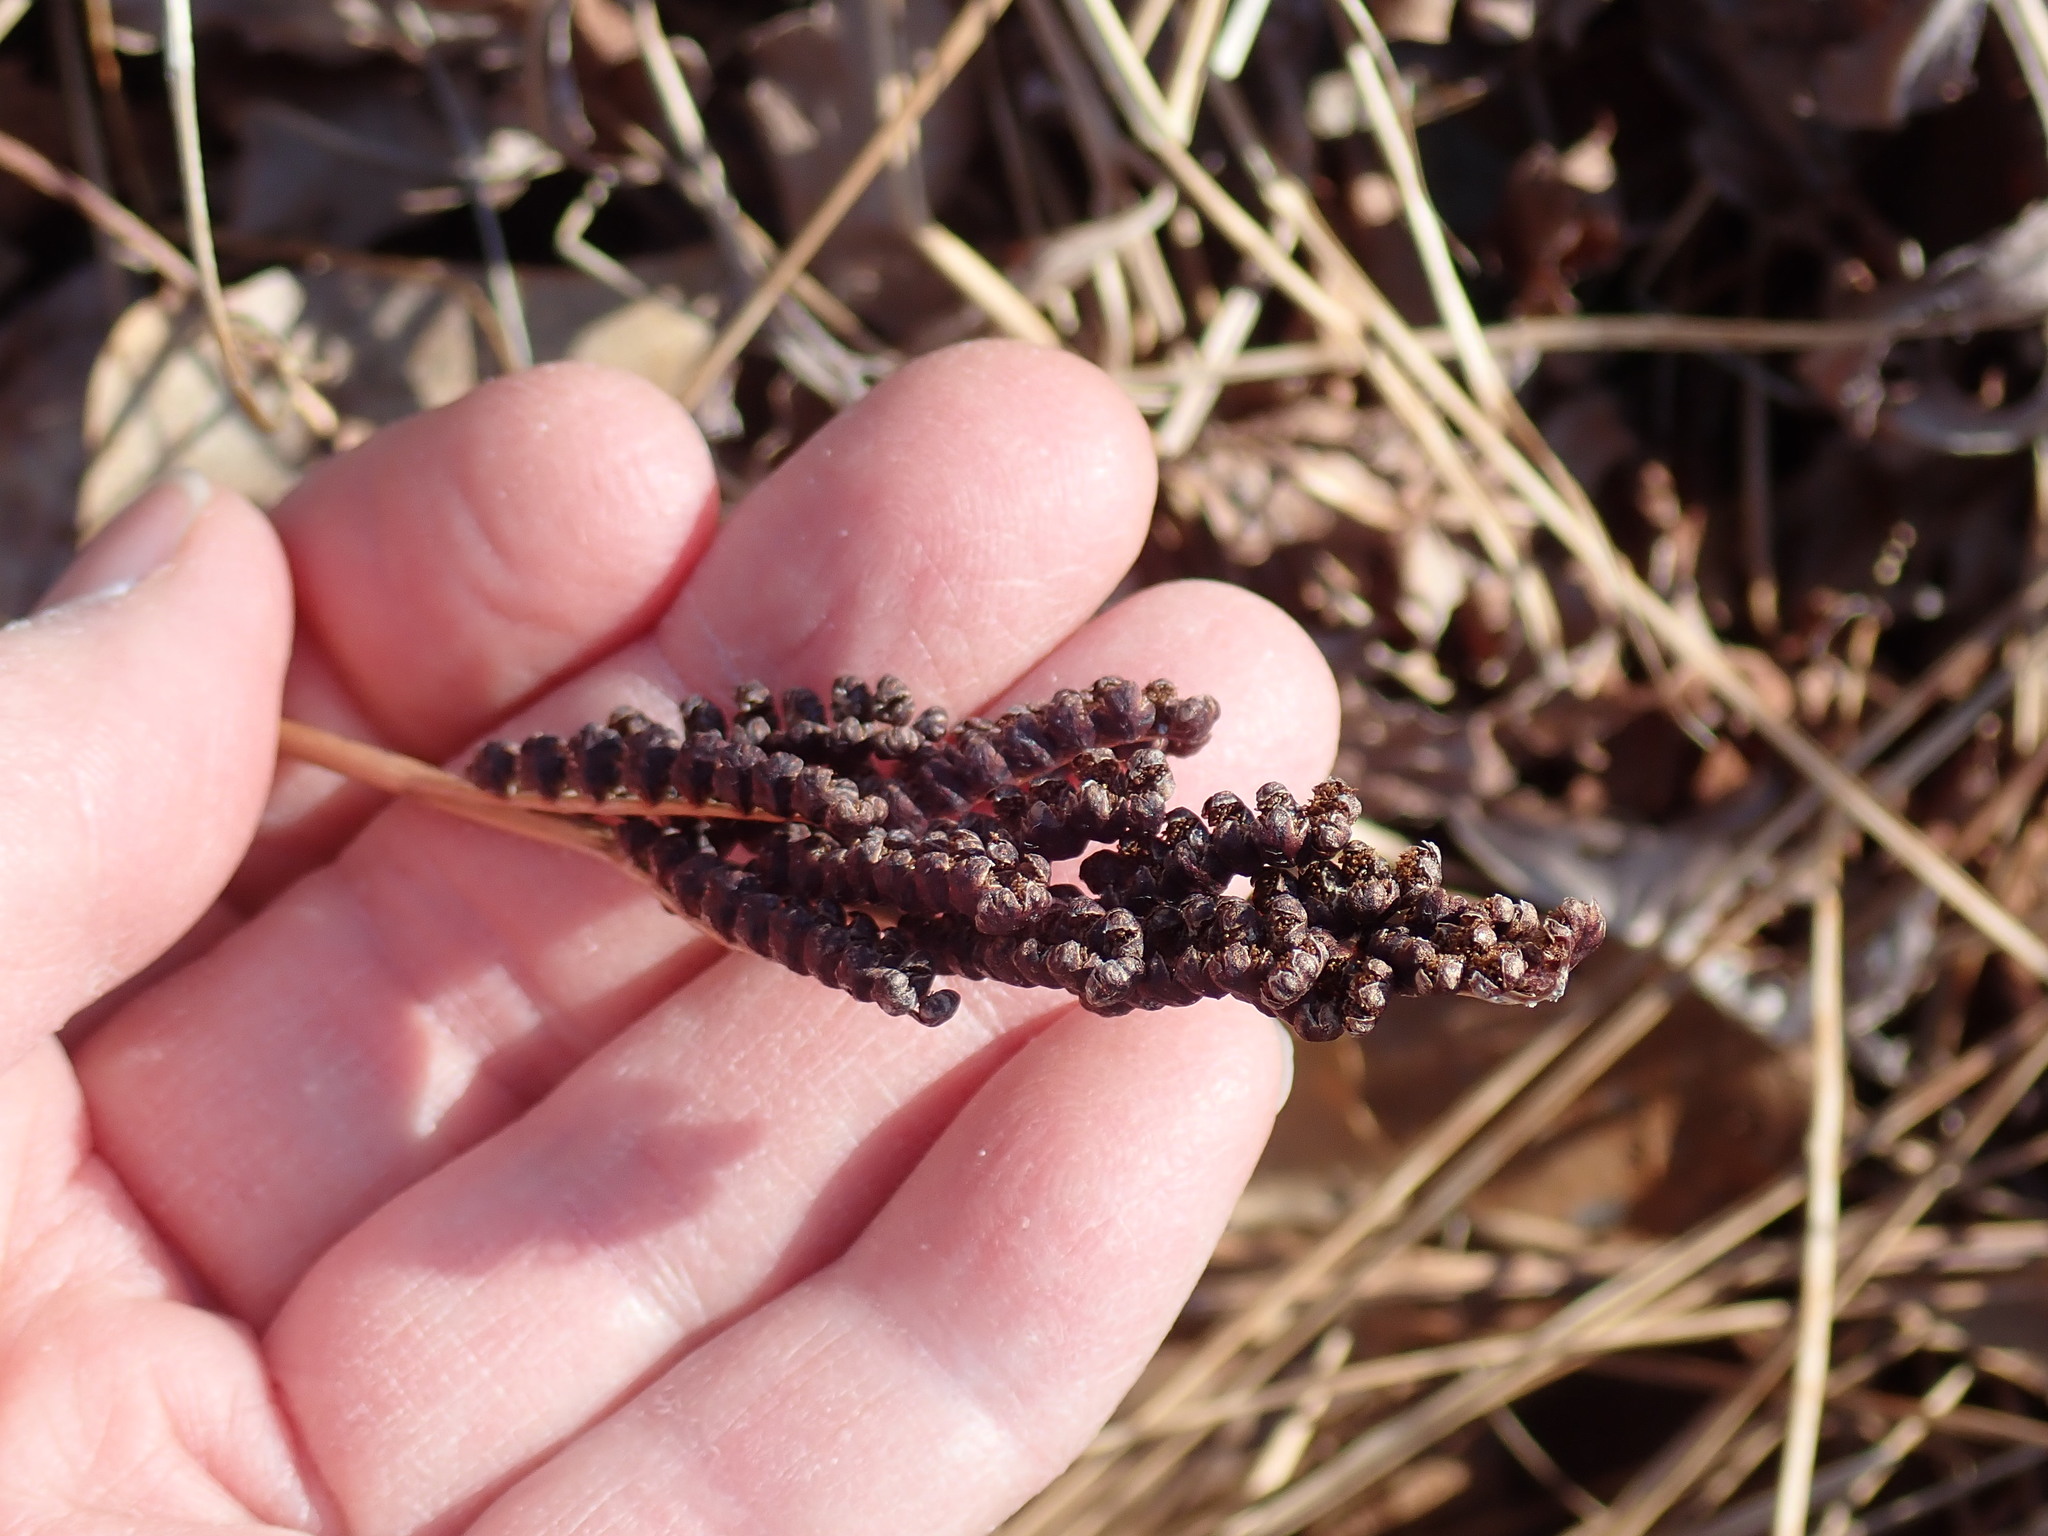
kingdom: Plantae
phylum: Tracheophyta
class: Polypodiopsida
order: Polypodiales
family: Onocleaceae
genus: Onoclea
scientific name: Onoclea sensibilis
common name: Sensitive fern
